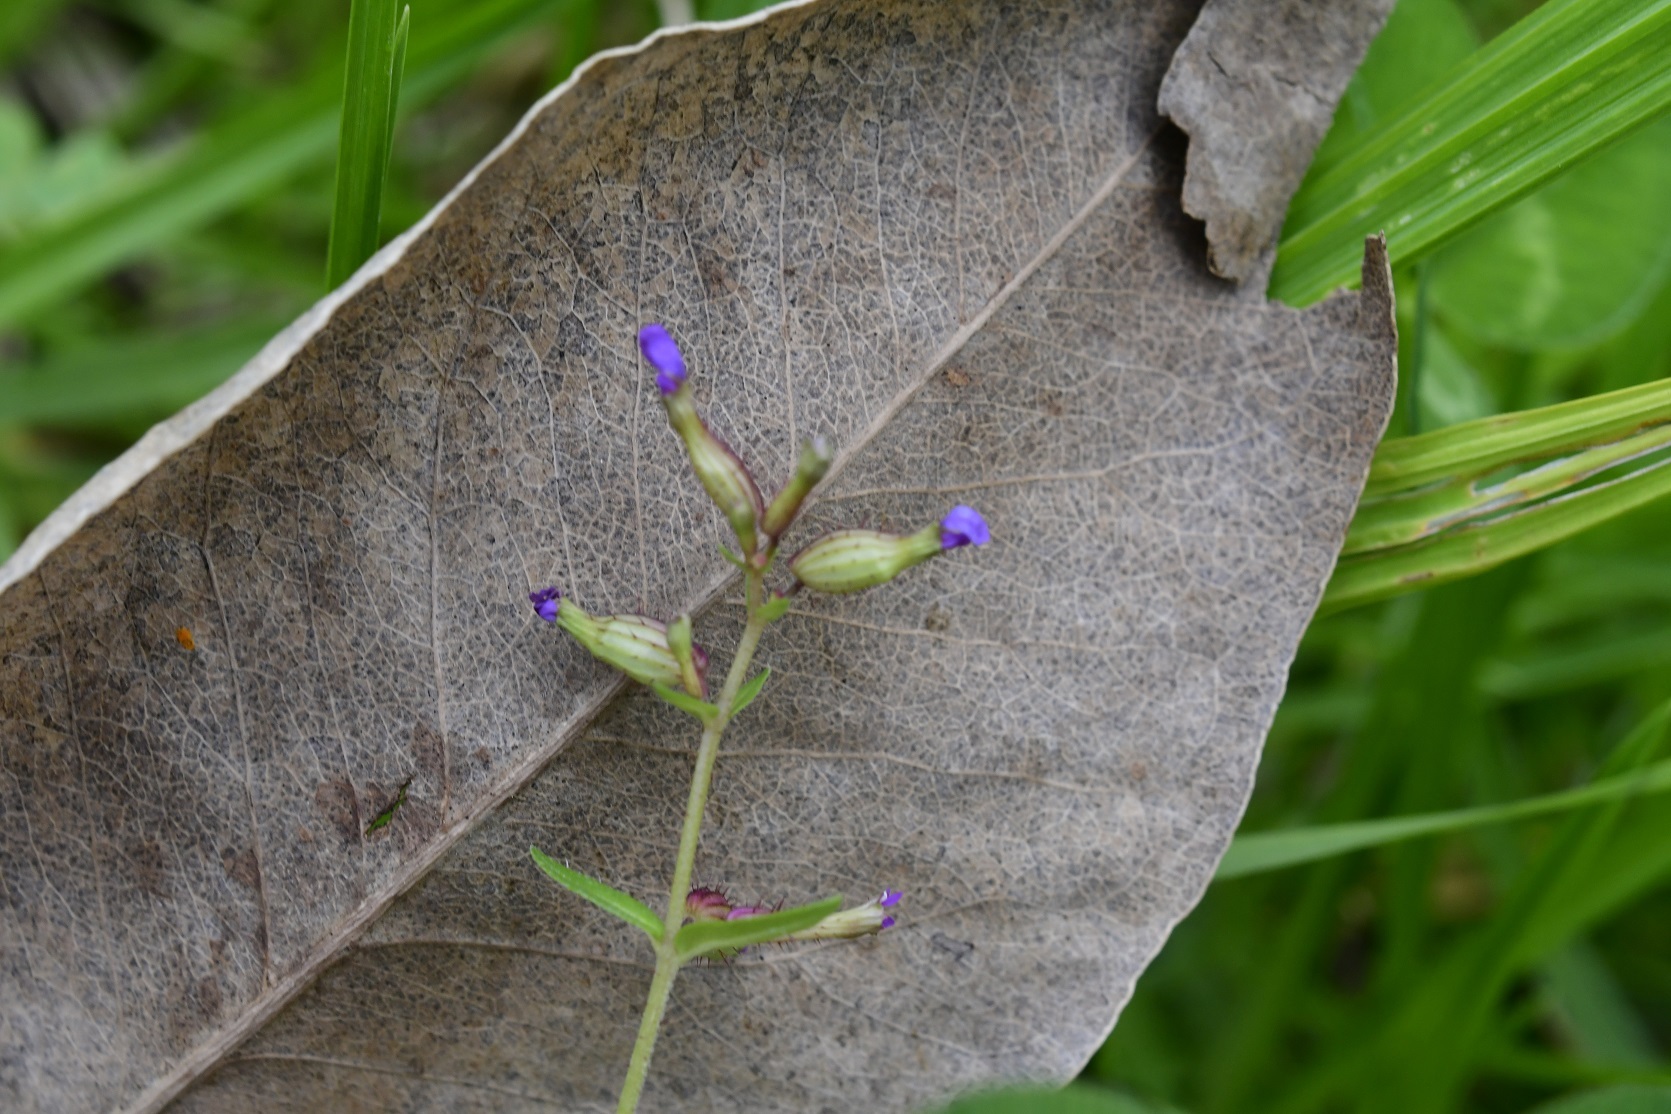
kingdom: Plantae
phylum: Tracheophyta
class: Magnoliopsida
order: Myrtales
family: Lythraceae
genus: Cuphea
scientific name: Cuphea tolucana
